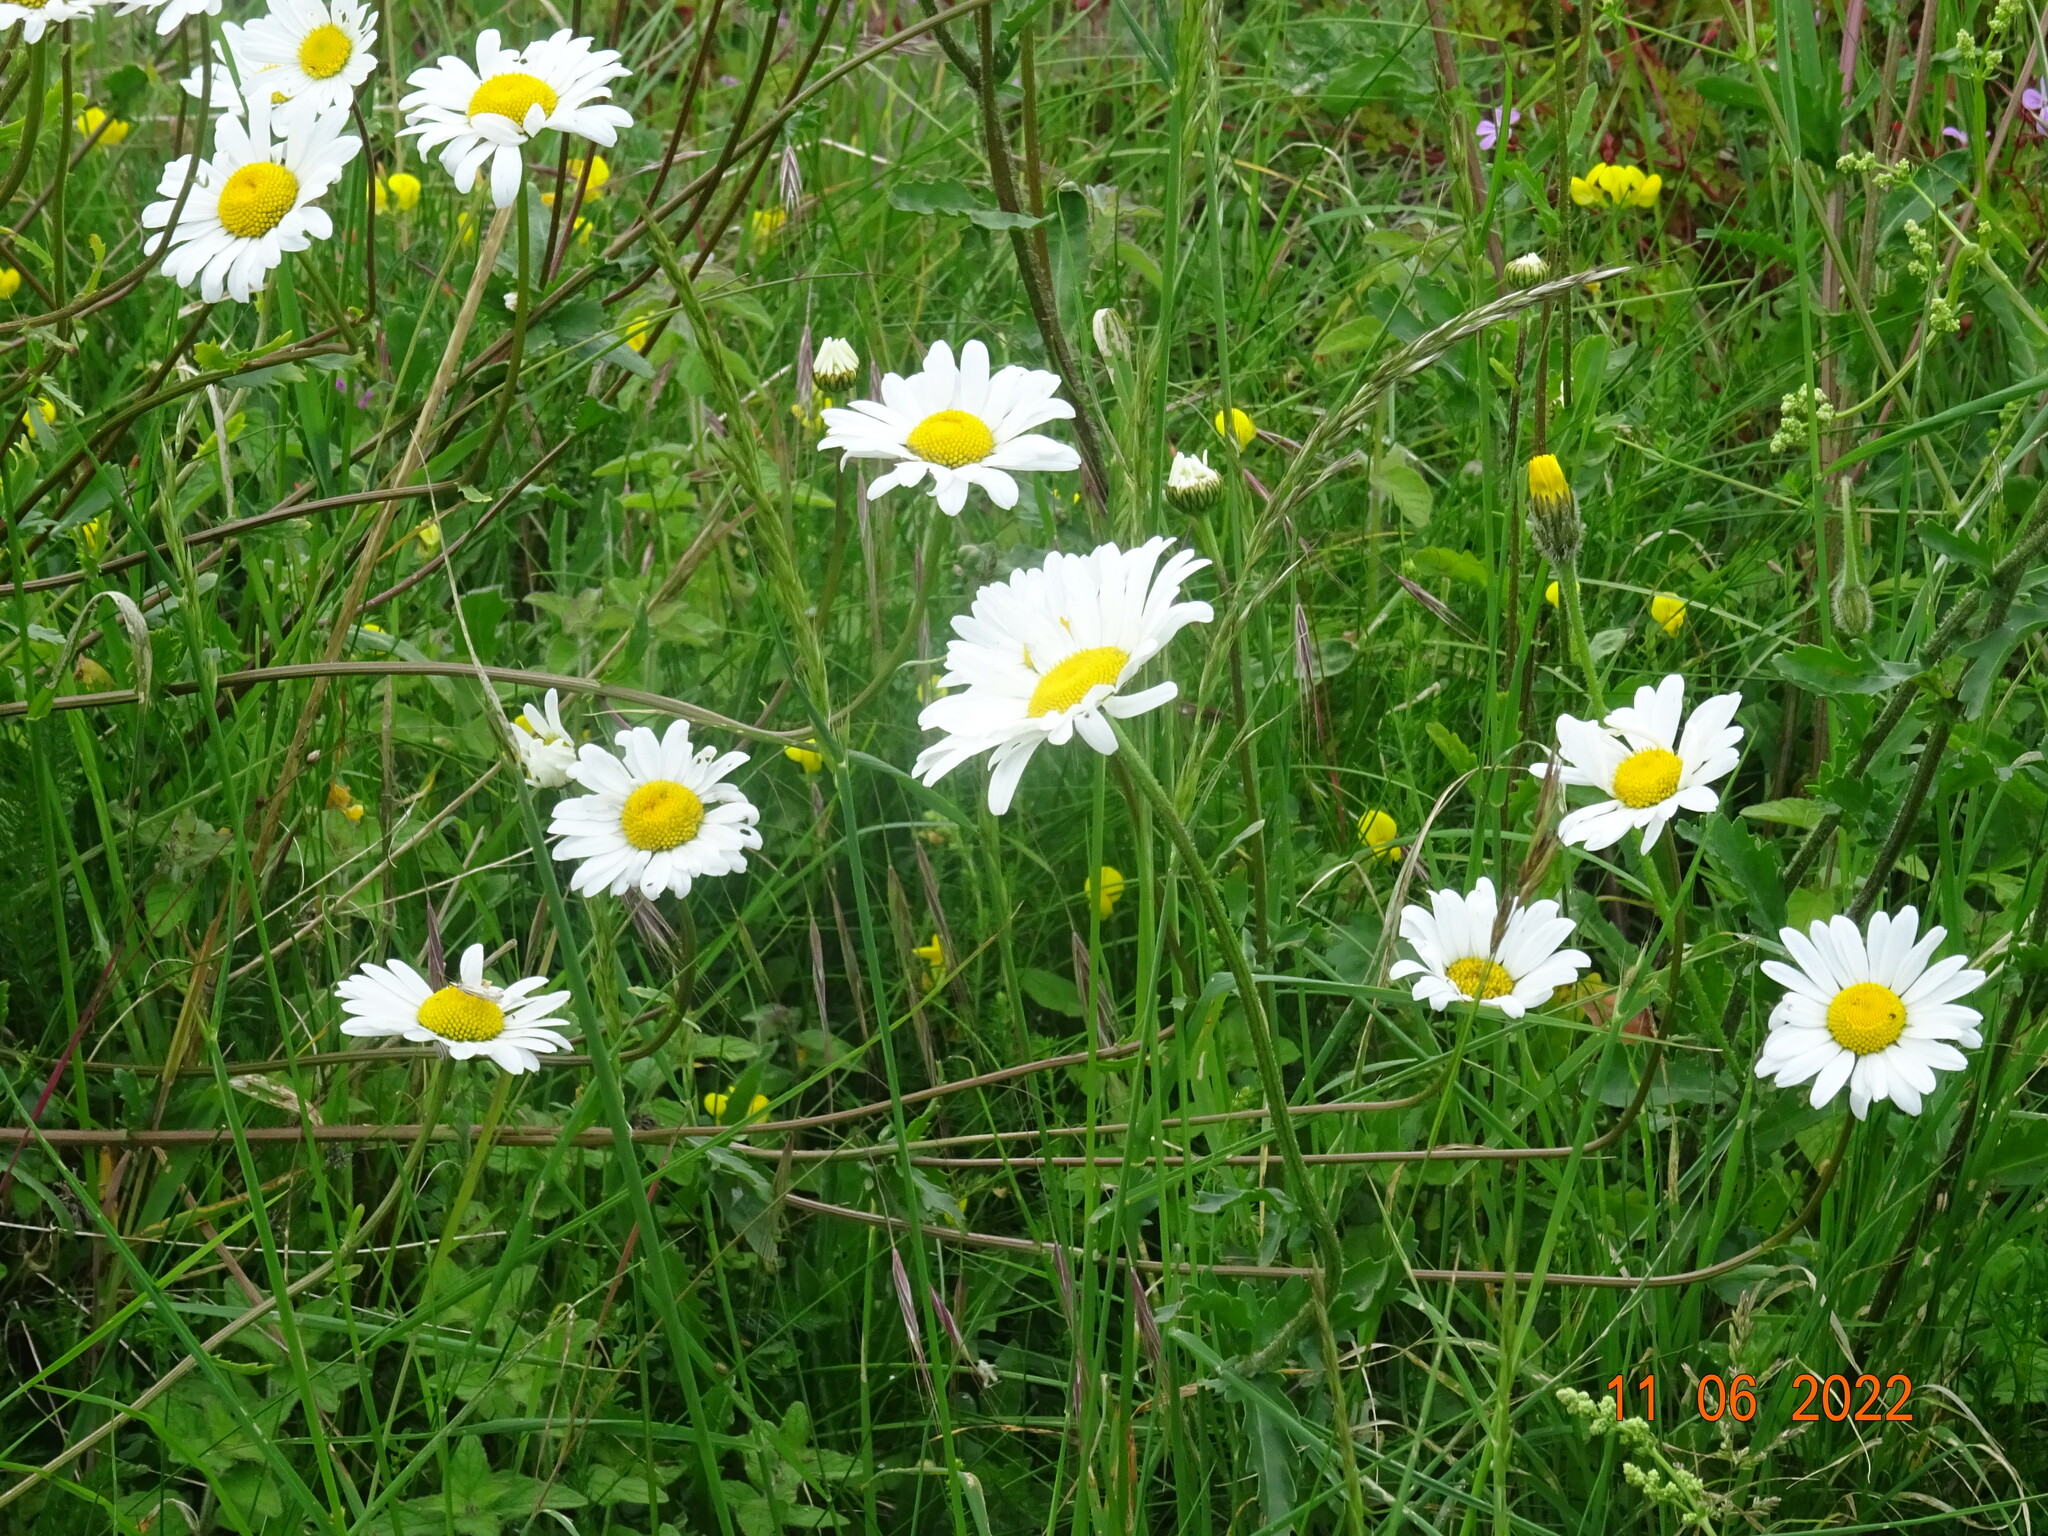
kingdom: Plantae
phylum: Tracheophyta
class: Magnoliopsida
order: Asterales
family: Asteraceae
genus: Leucanthemum
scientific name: Leucanthemum vulgare
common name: Oxeye daisy
